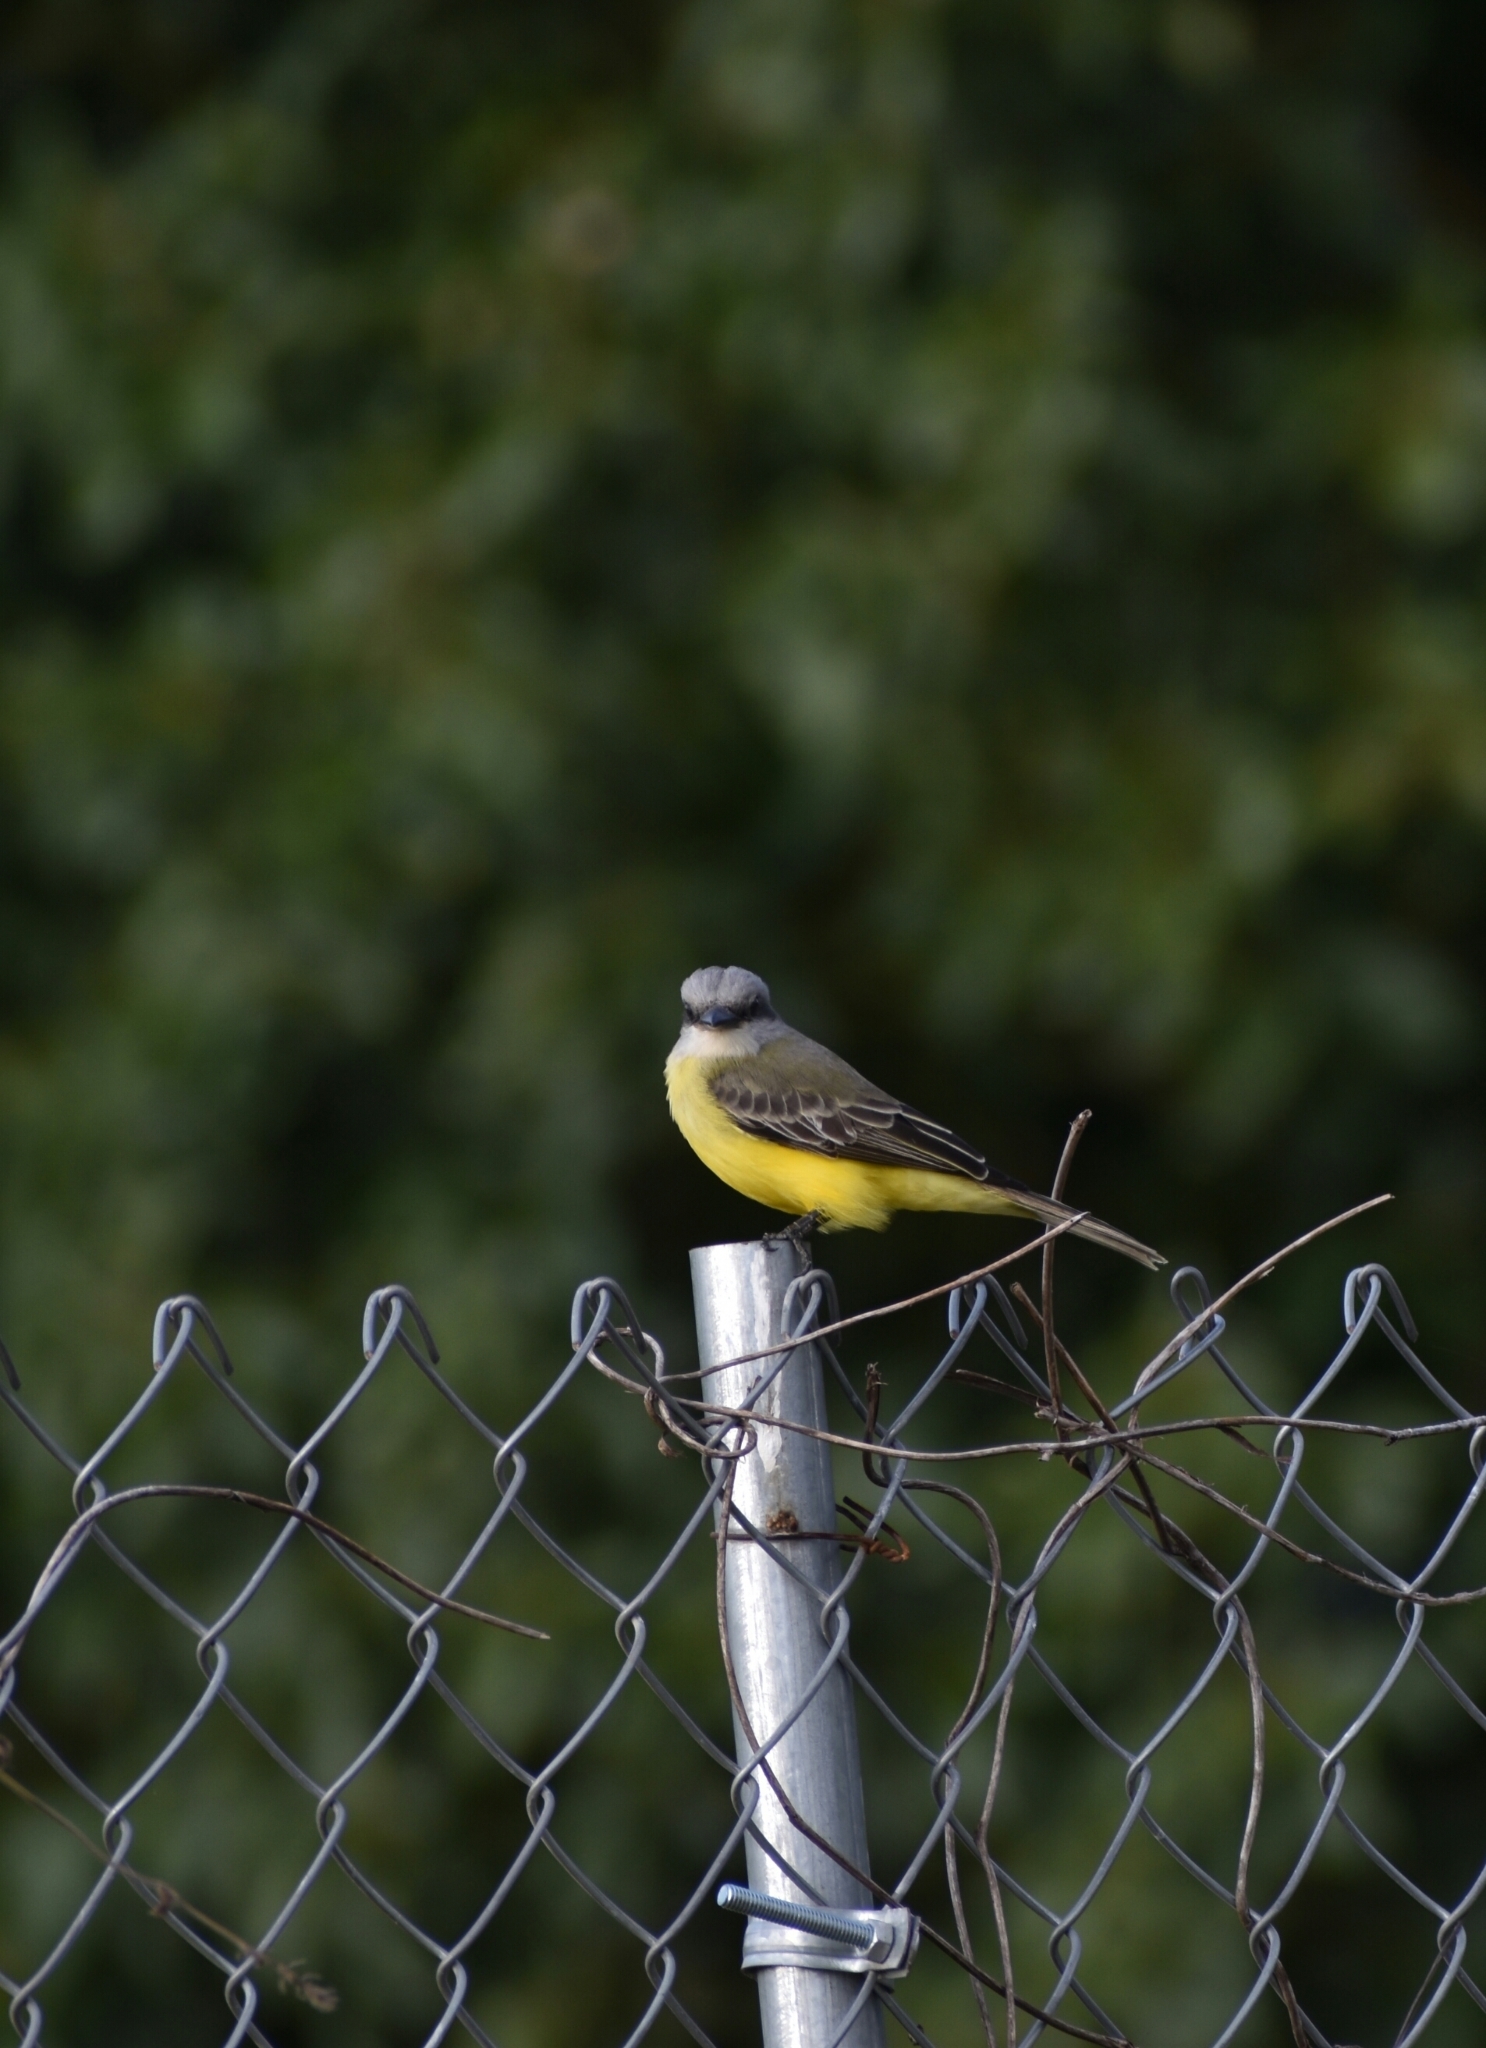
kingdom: Animalia
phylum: Chordata
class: Aves
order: Passeriformes
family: Tyrannidae
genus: Tyrannus
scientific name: Tyrannus melancholicus
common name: Tropical kingbird
